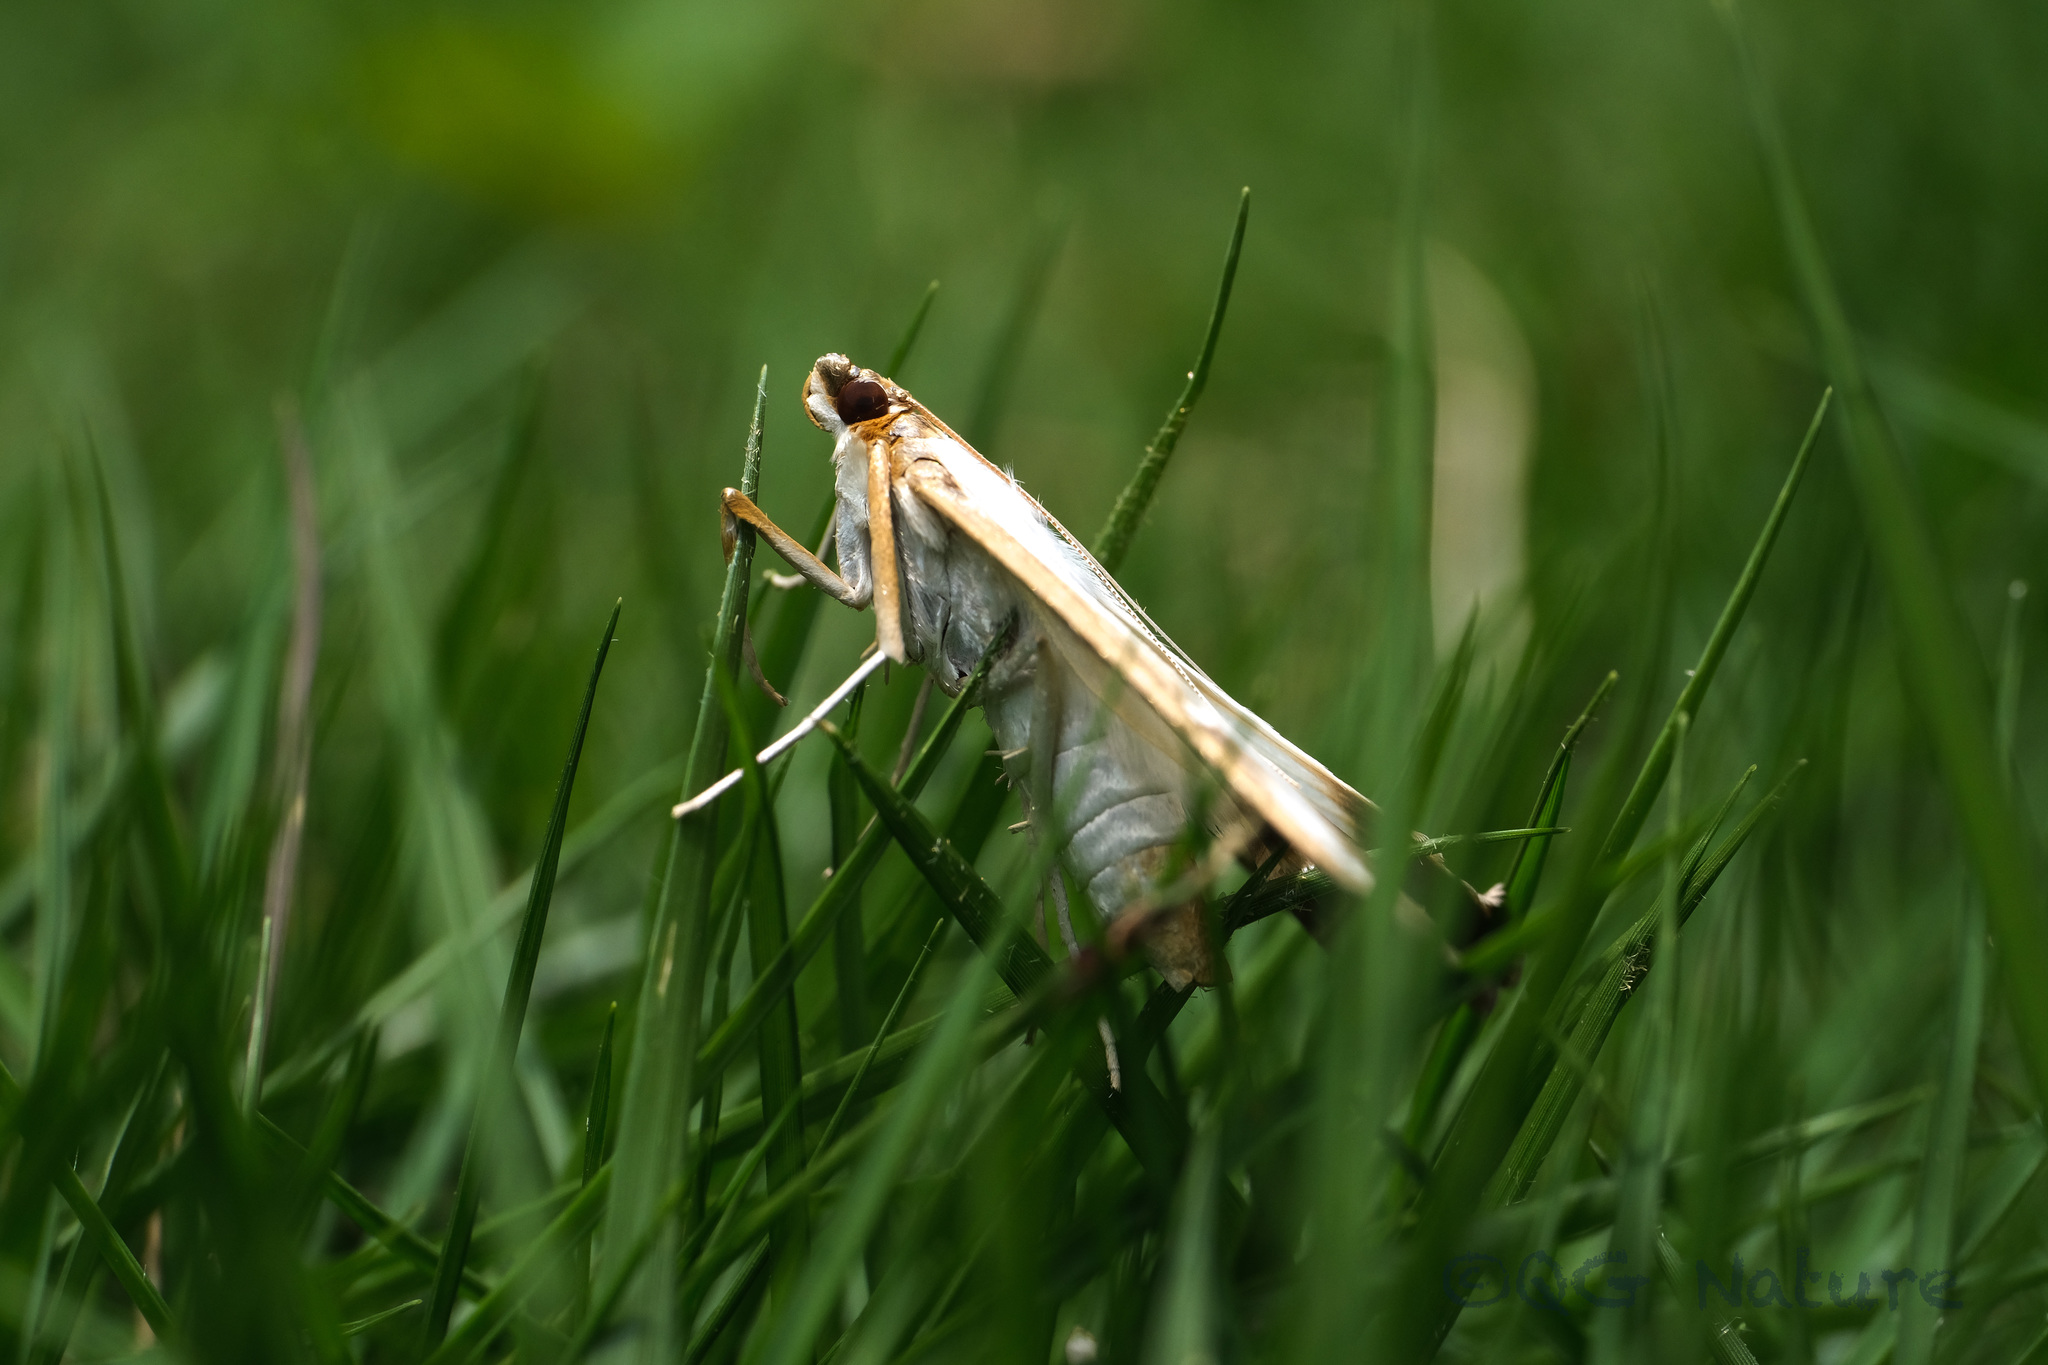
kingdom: Animalia
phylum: Arthropoda
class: Insecta
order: Lepidoptera
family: Crambidae
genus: Cydalima
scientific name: Cydalima perspectalis
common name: Box tree moth
